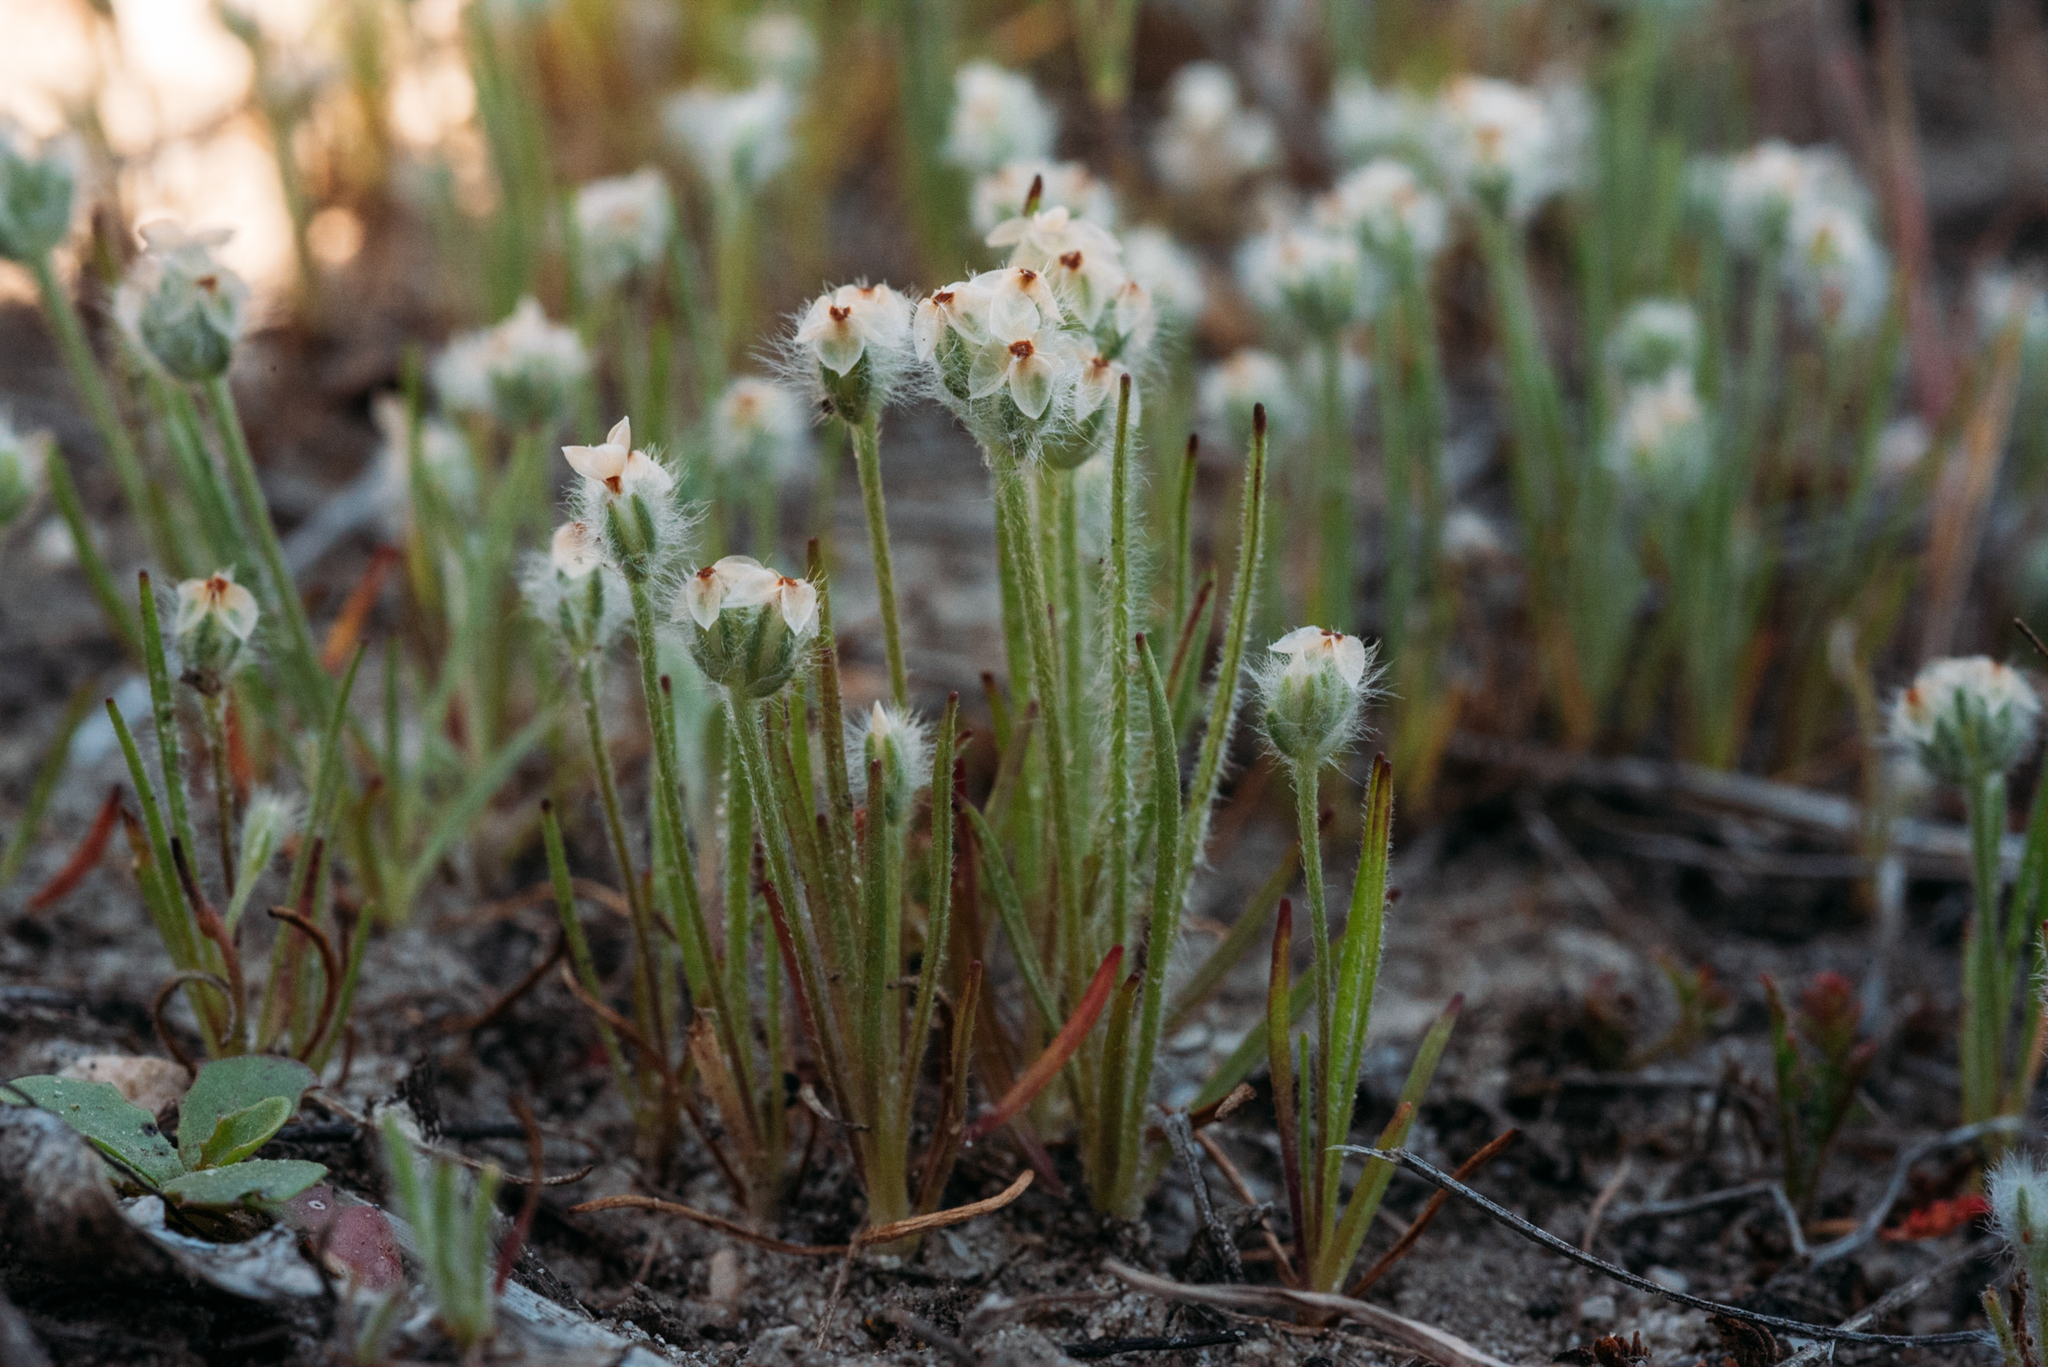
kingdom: Plantae
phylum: Tracheophyta
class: Magnoliopsida
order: Lamiales
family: Plantaginaceae
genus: Plantago
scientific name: Plantago erecta
